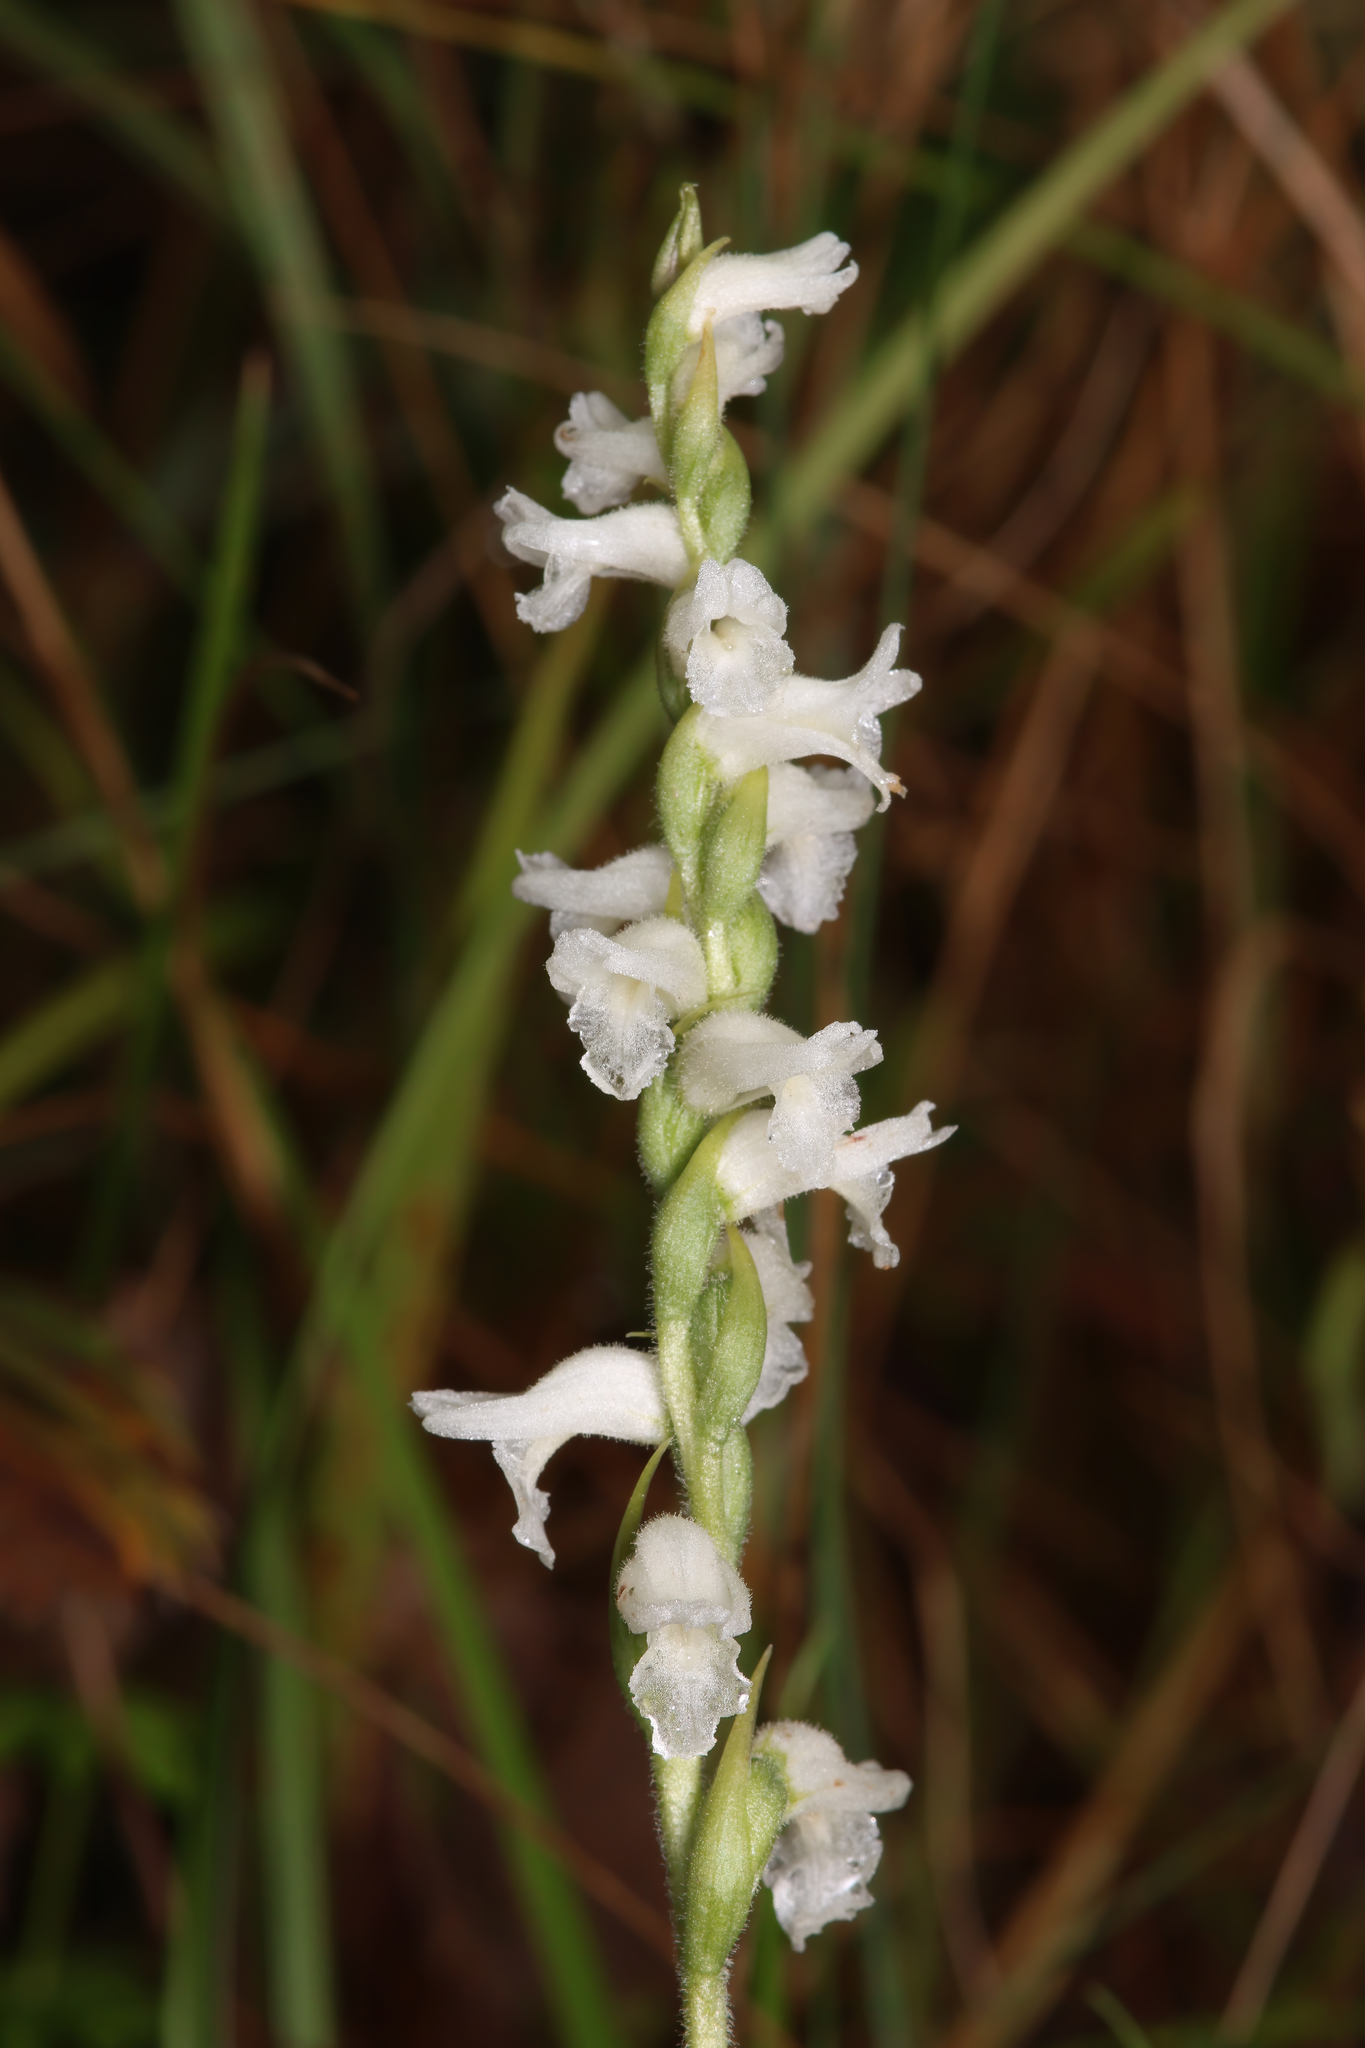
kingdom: Plantae
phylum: Tracheophyta
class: Liliopsida
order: Asparagales
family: Orchidaceae
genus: Spiranthes
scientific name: Spiranthes incurva
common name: Sphinx ladies'-tresses
